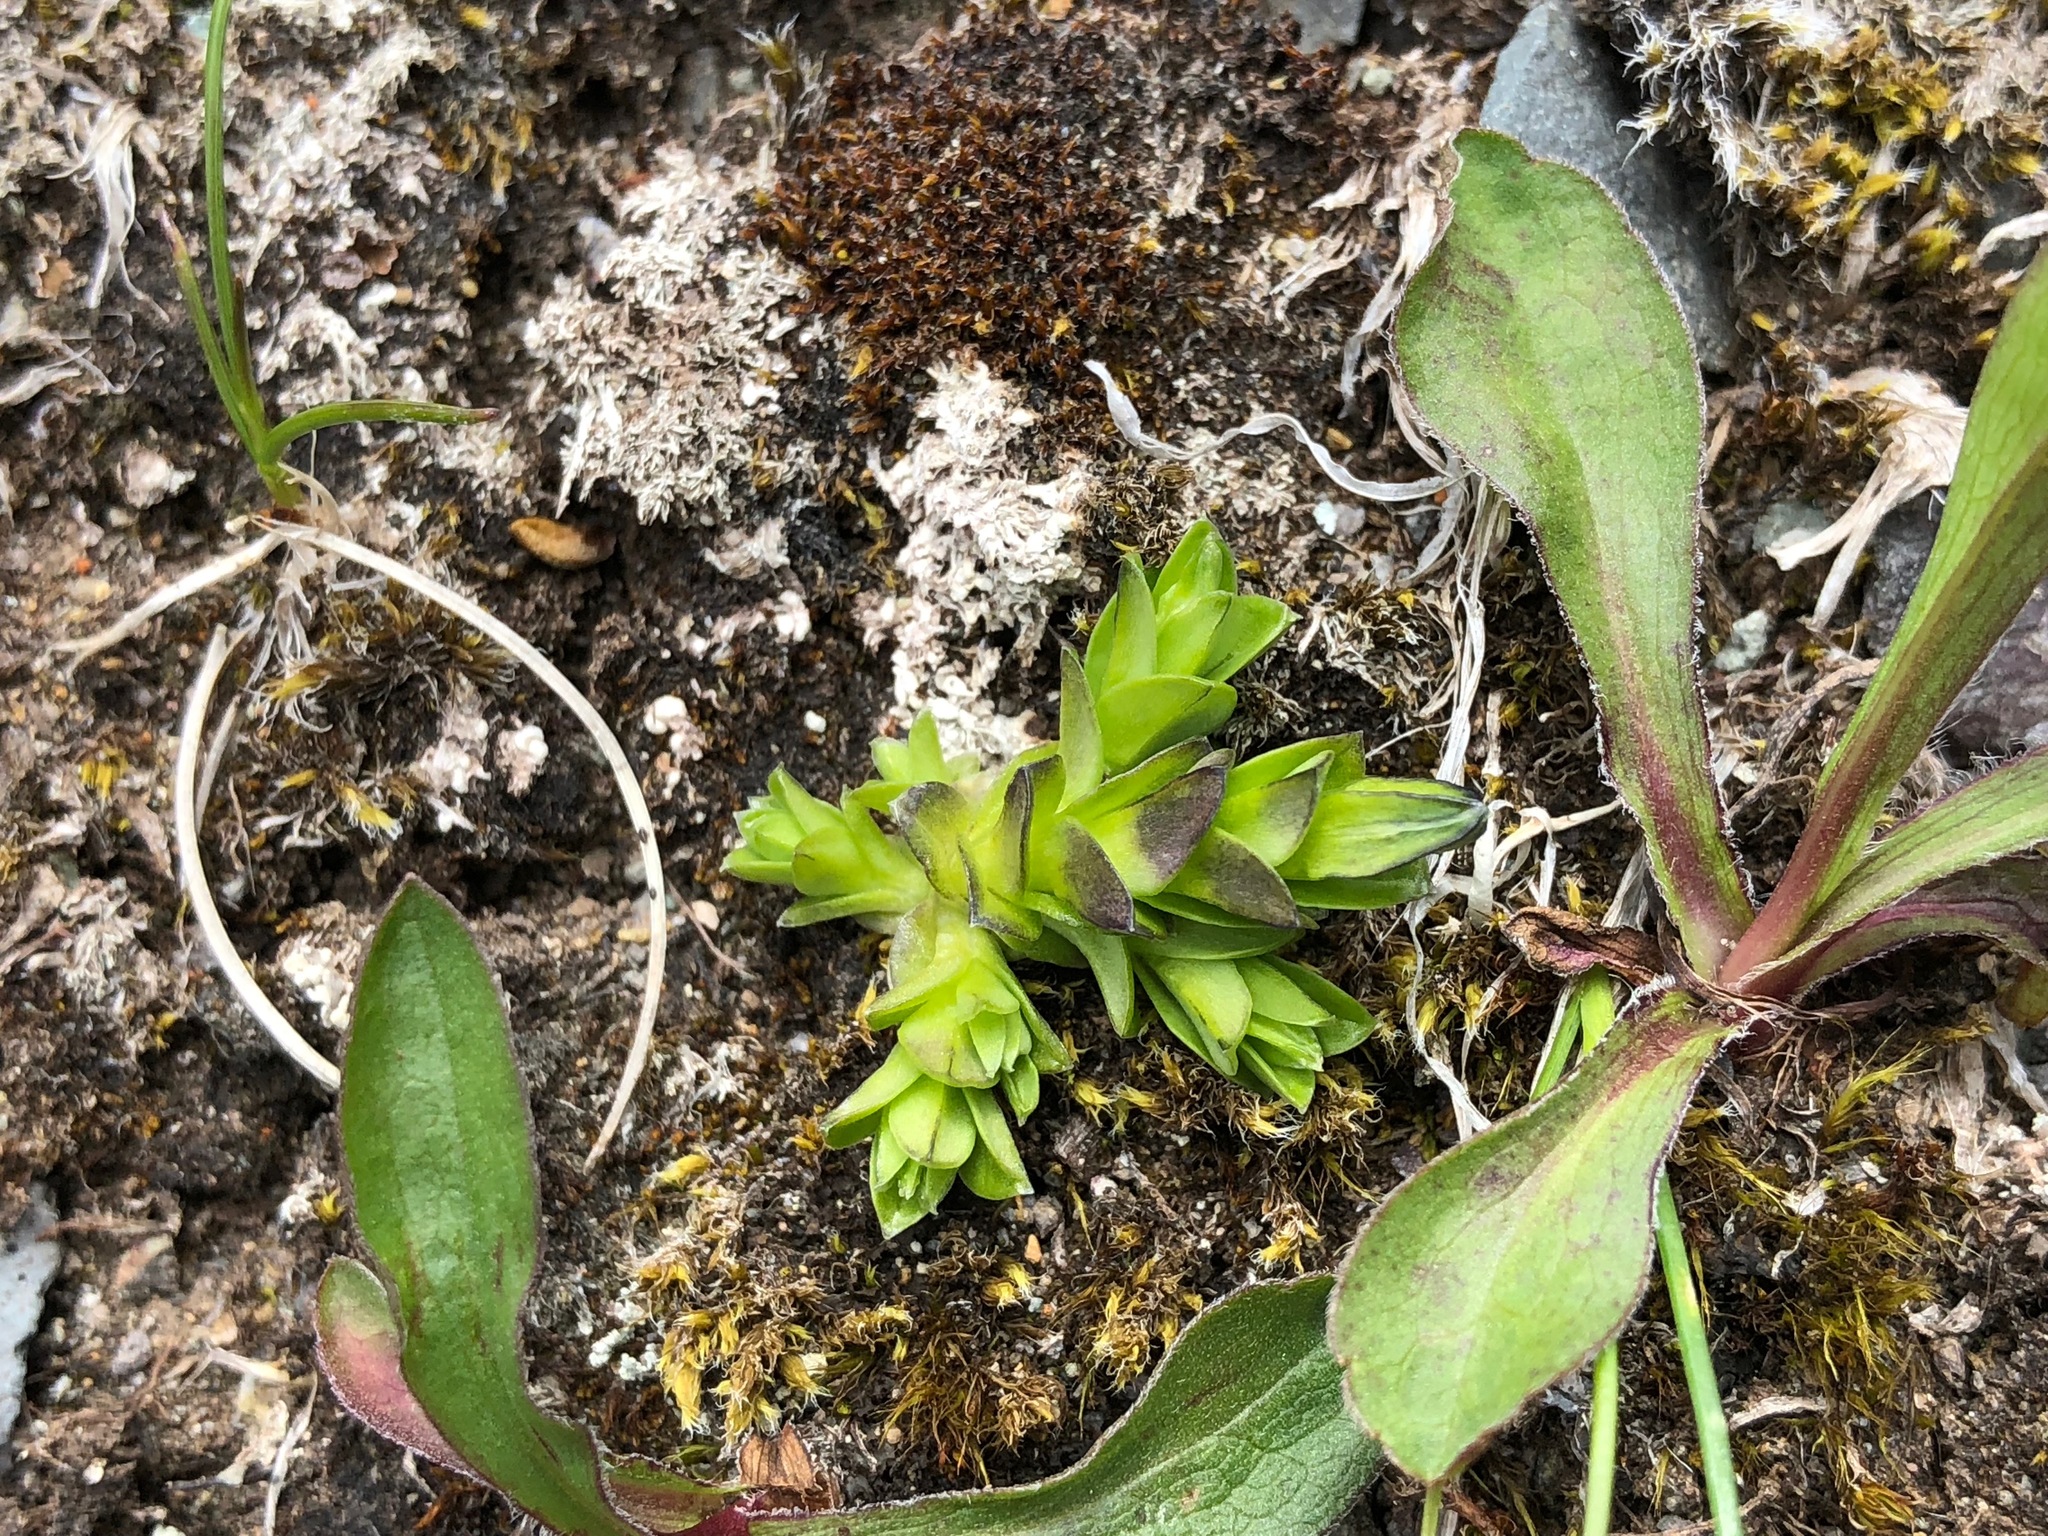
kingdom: Plantae
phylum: Tracheophyta
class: Magnoliopsida
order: Gentianales
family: Gentianaceae
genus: Gentiana
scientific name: Gentiana prostrata
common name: Moss gentian
